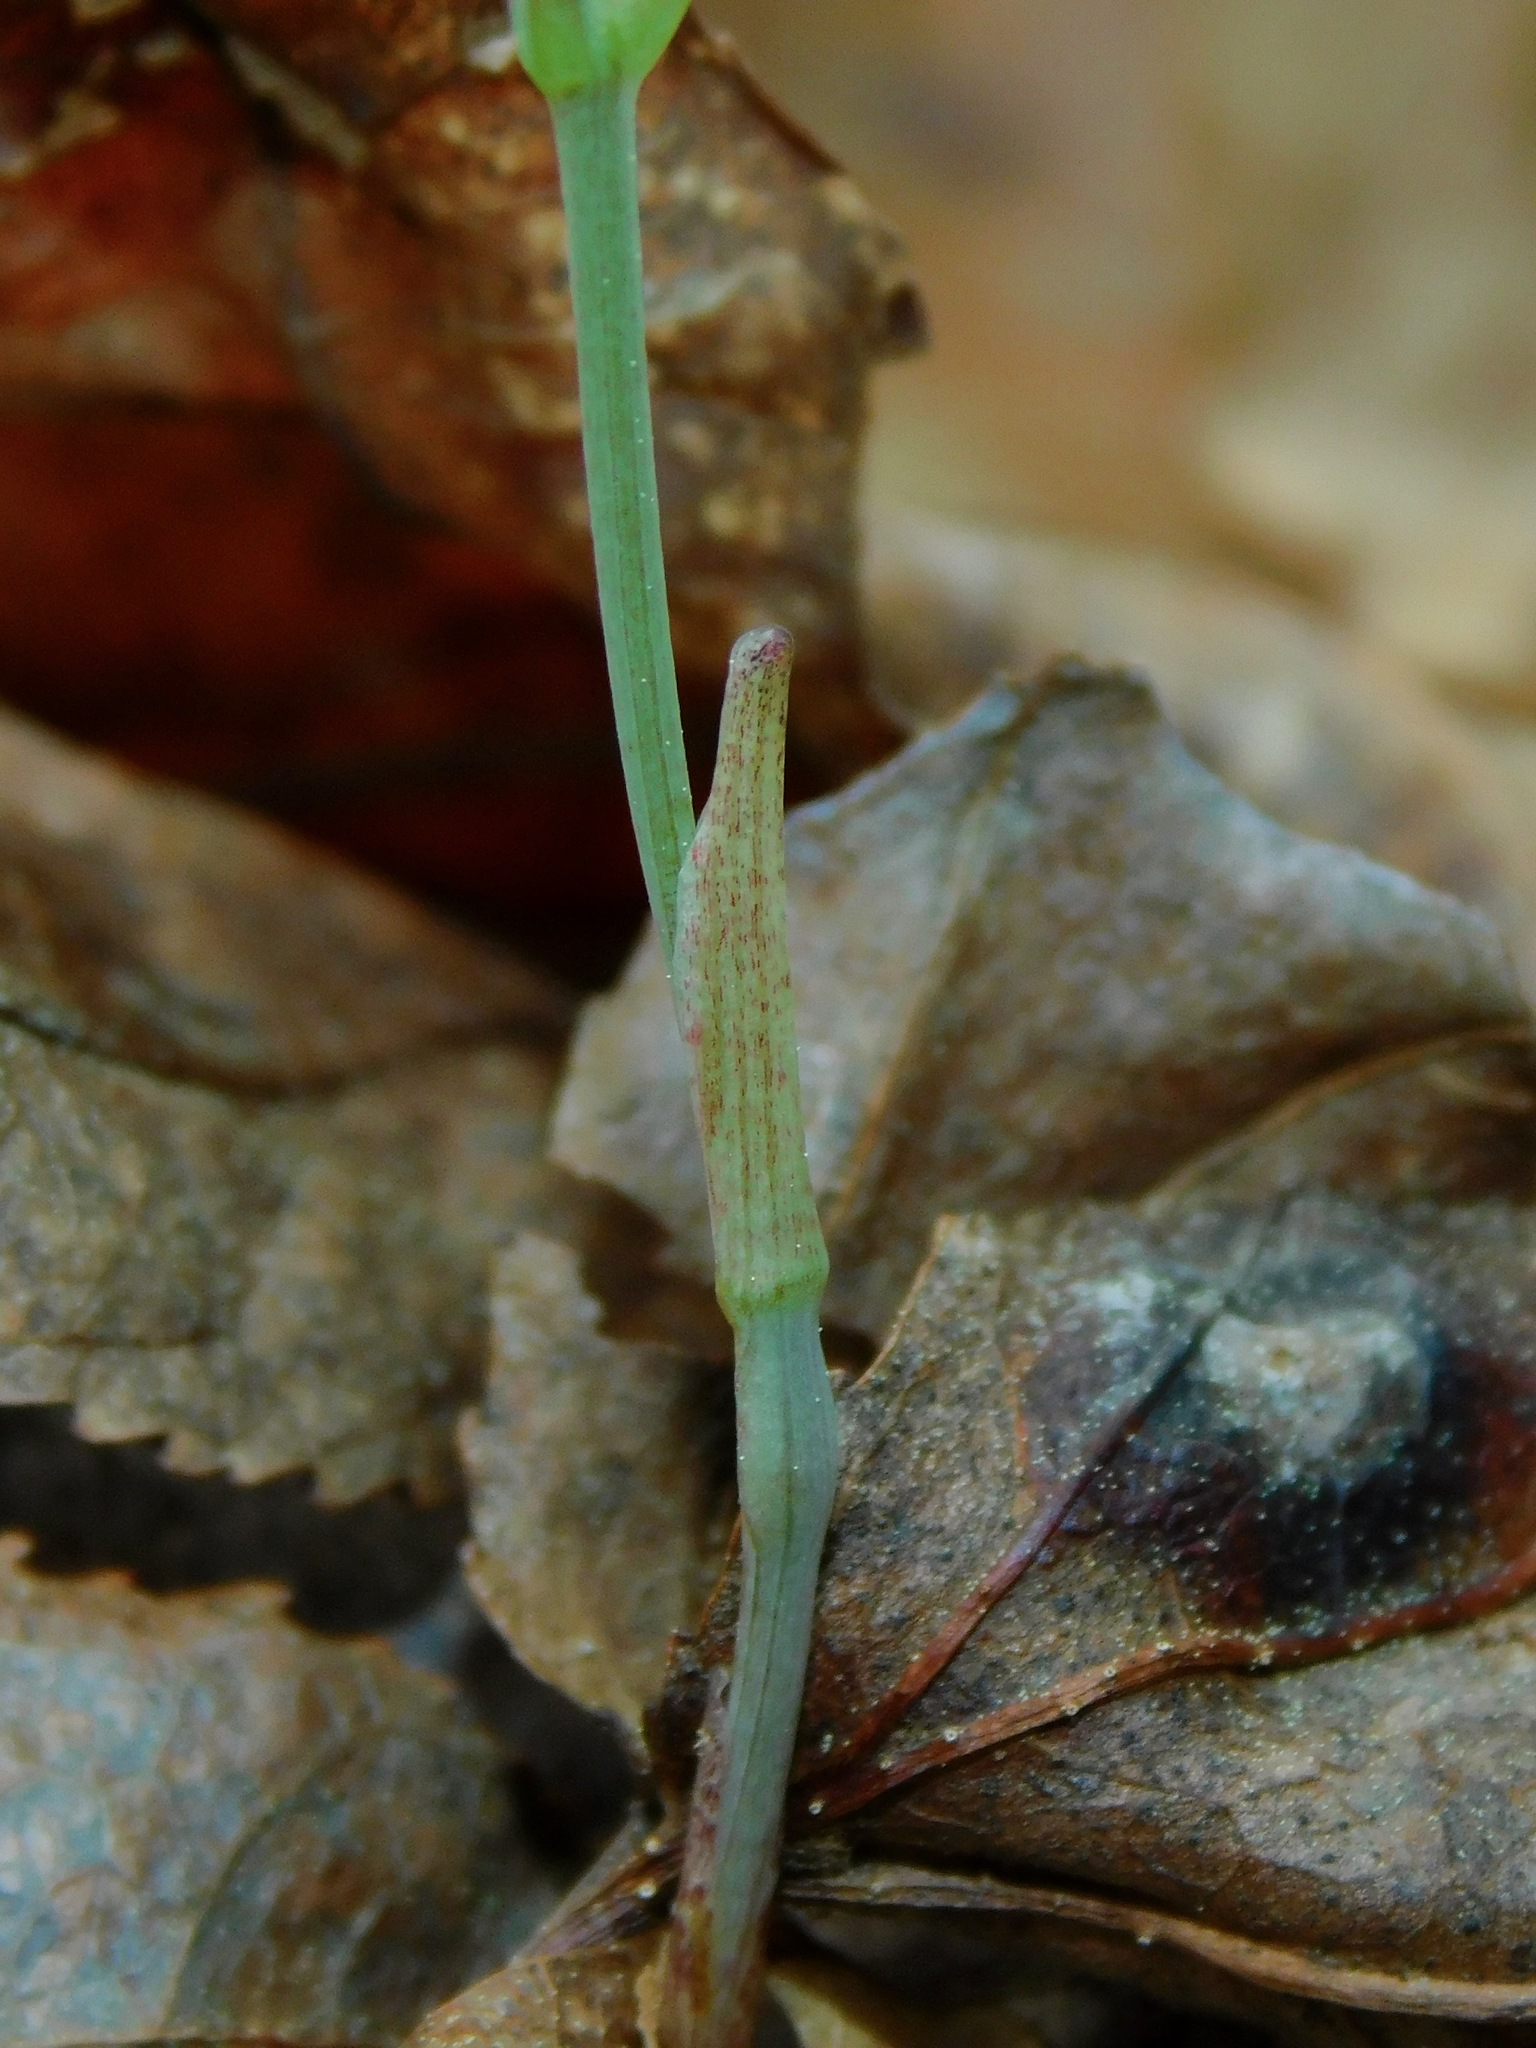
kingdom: Plantae
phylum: Tracheophyta
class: Liliopsida
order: Liliales
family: Smilacaceae
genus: Smilax
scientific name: Smilax herbacea
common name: Jacob's-ladder
